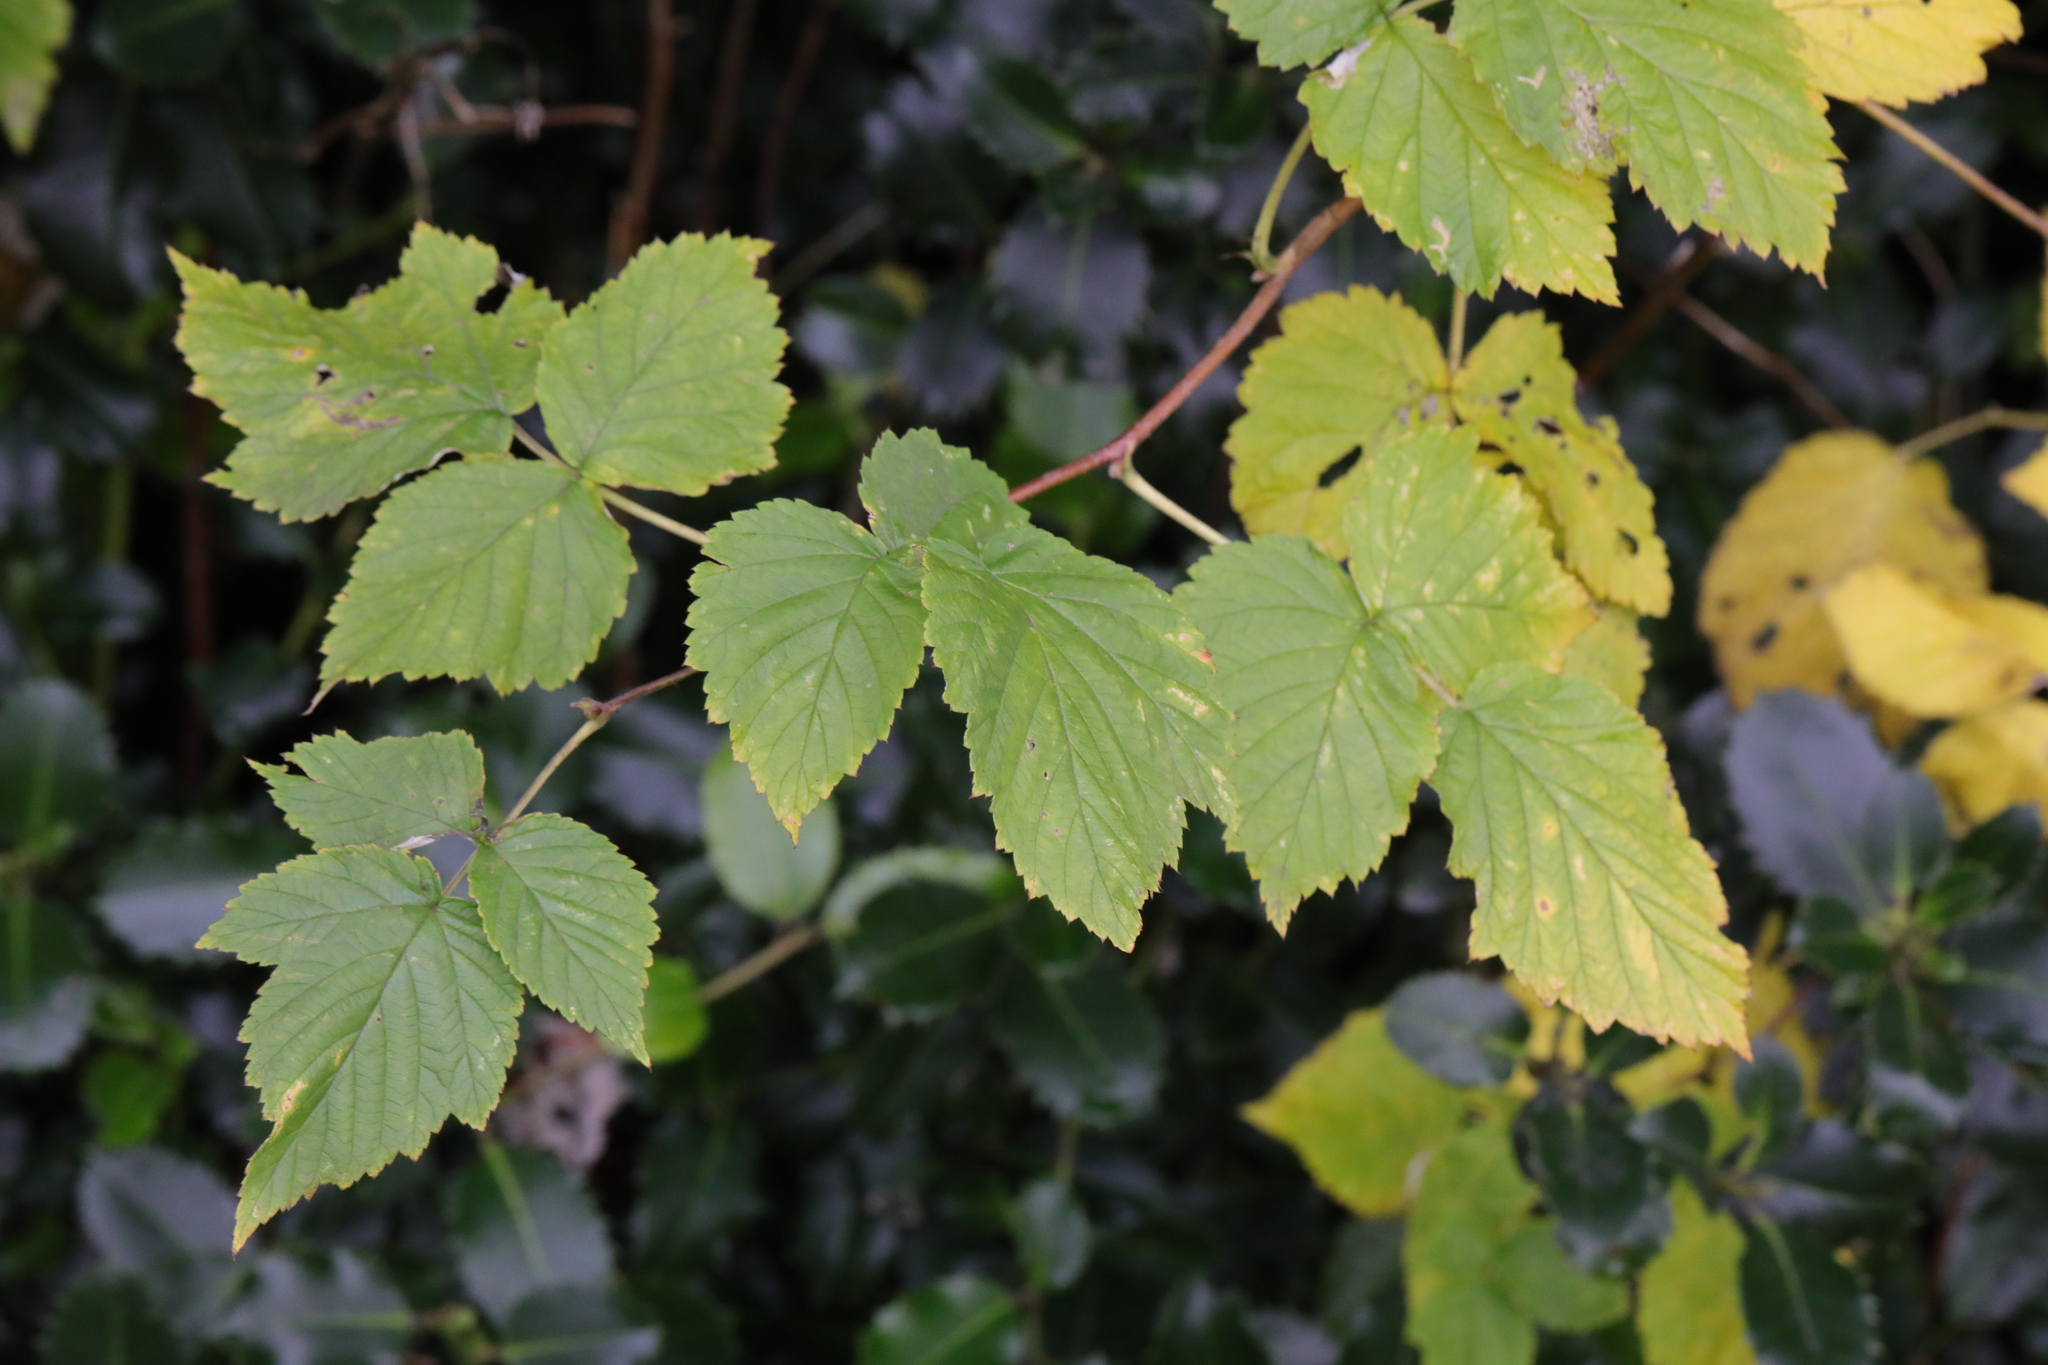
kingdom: Plantae
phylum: Tracheophyta
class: Magnoliopsida
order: Rosales
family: Rosaceae
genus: Rubus
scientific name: Rubus idaeus
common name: Raspberry
